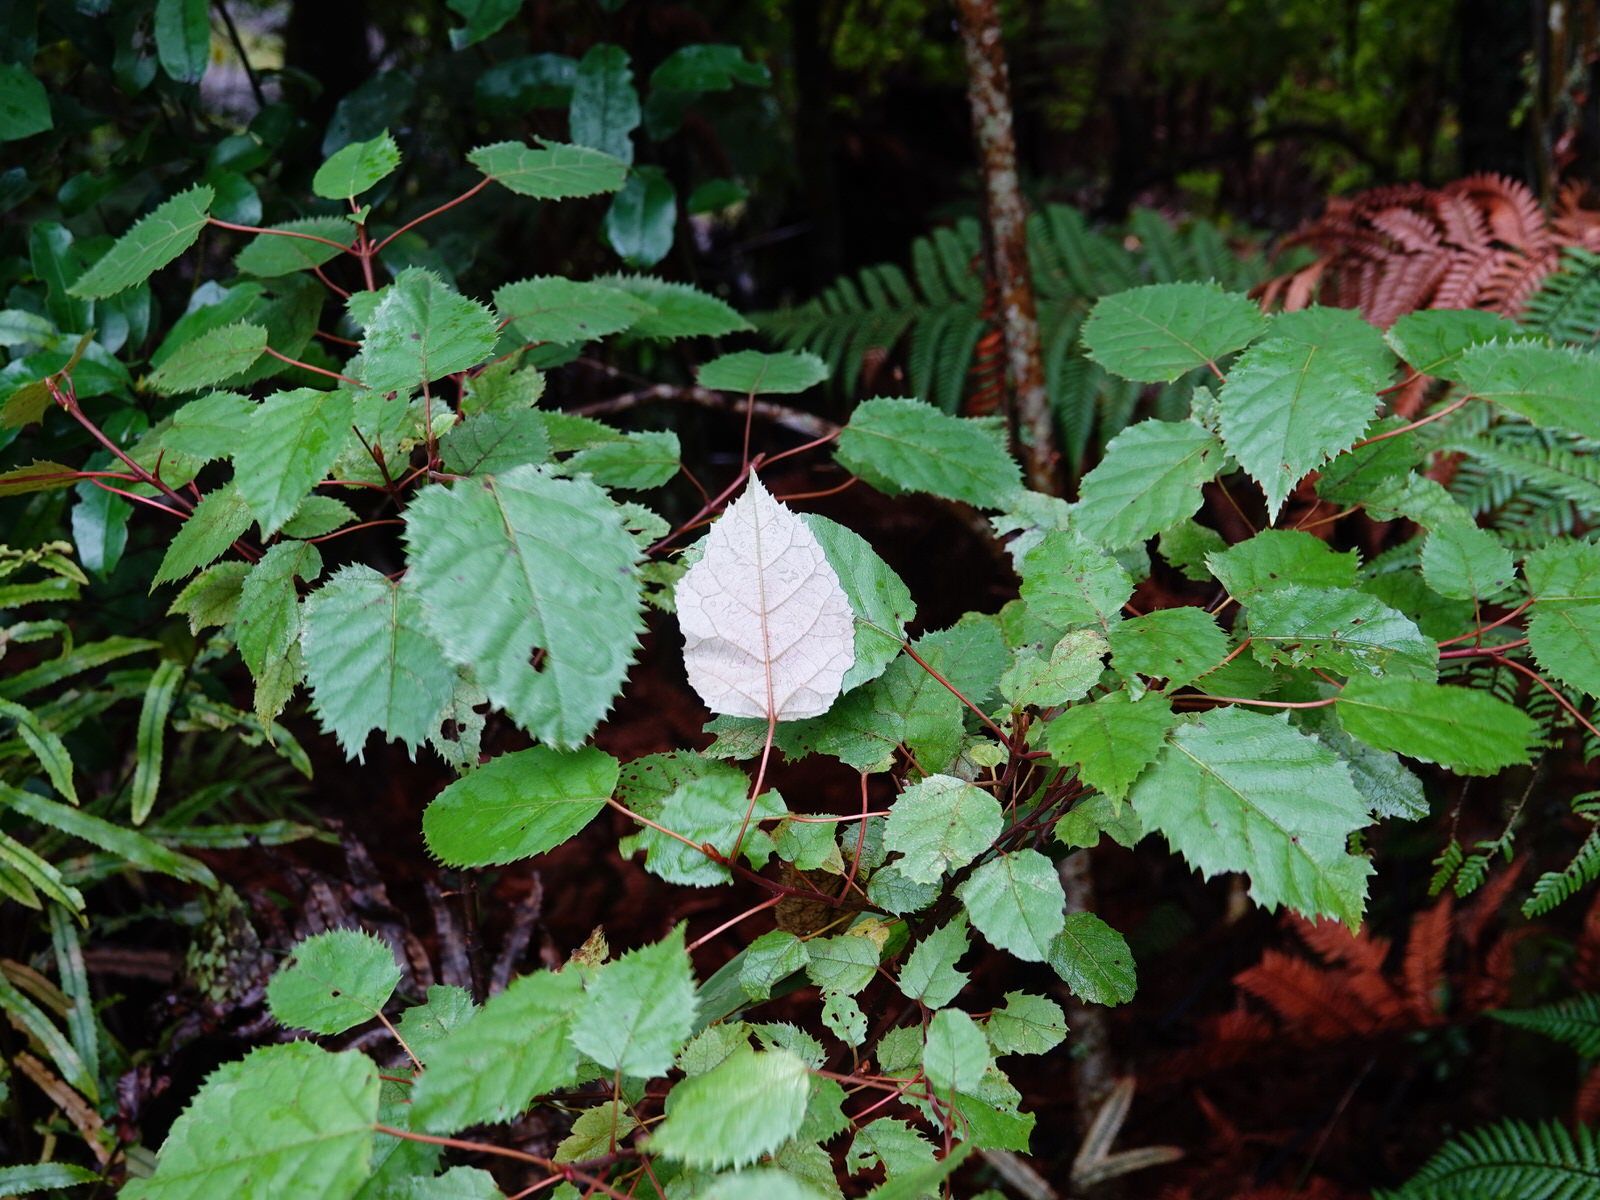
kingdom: Plantae
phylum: Tracheophyta
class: Magnoliopsida
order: Oxalidales
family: Elaeocarpaceae
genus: Aristotelia
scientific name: Aristotelia serrata
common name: New zealand wineberry
